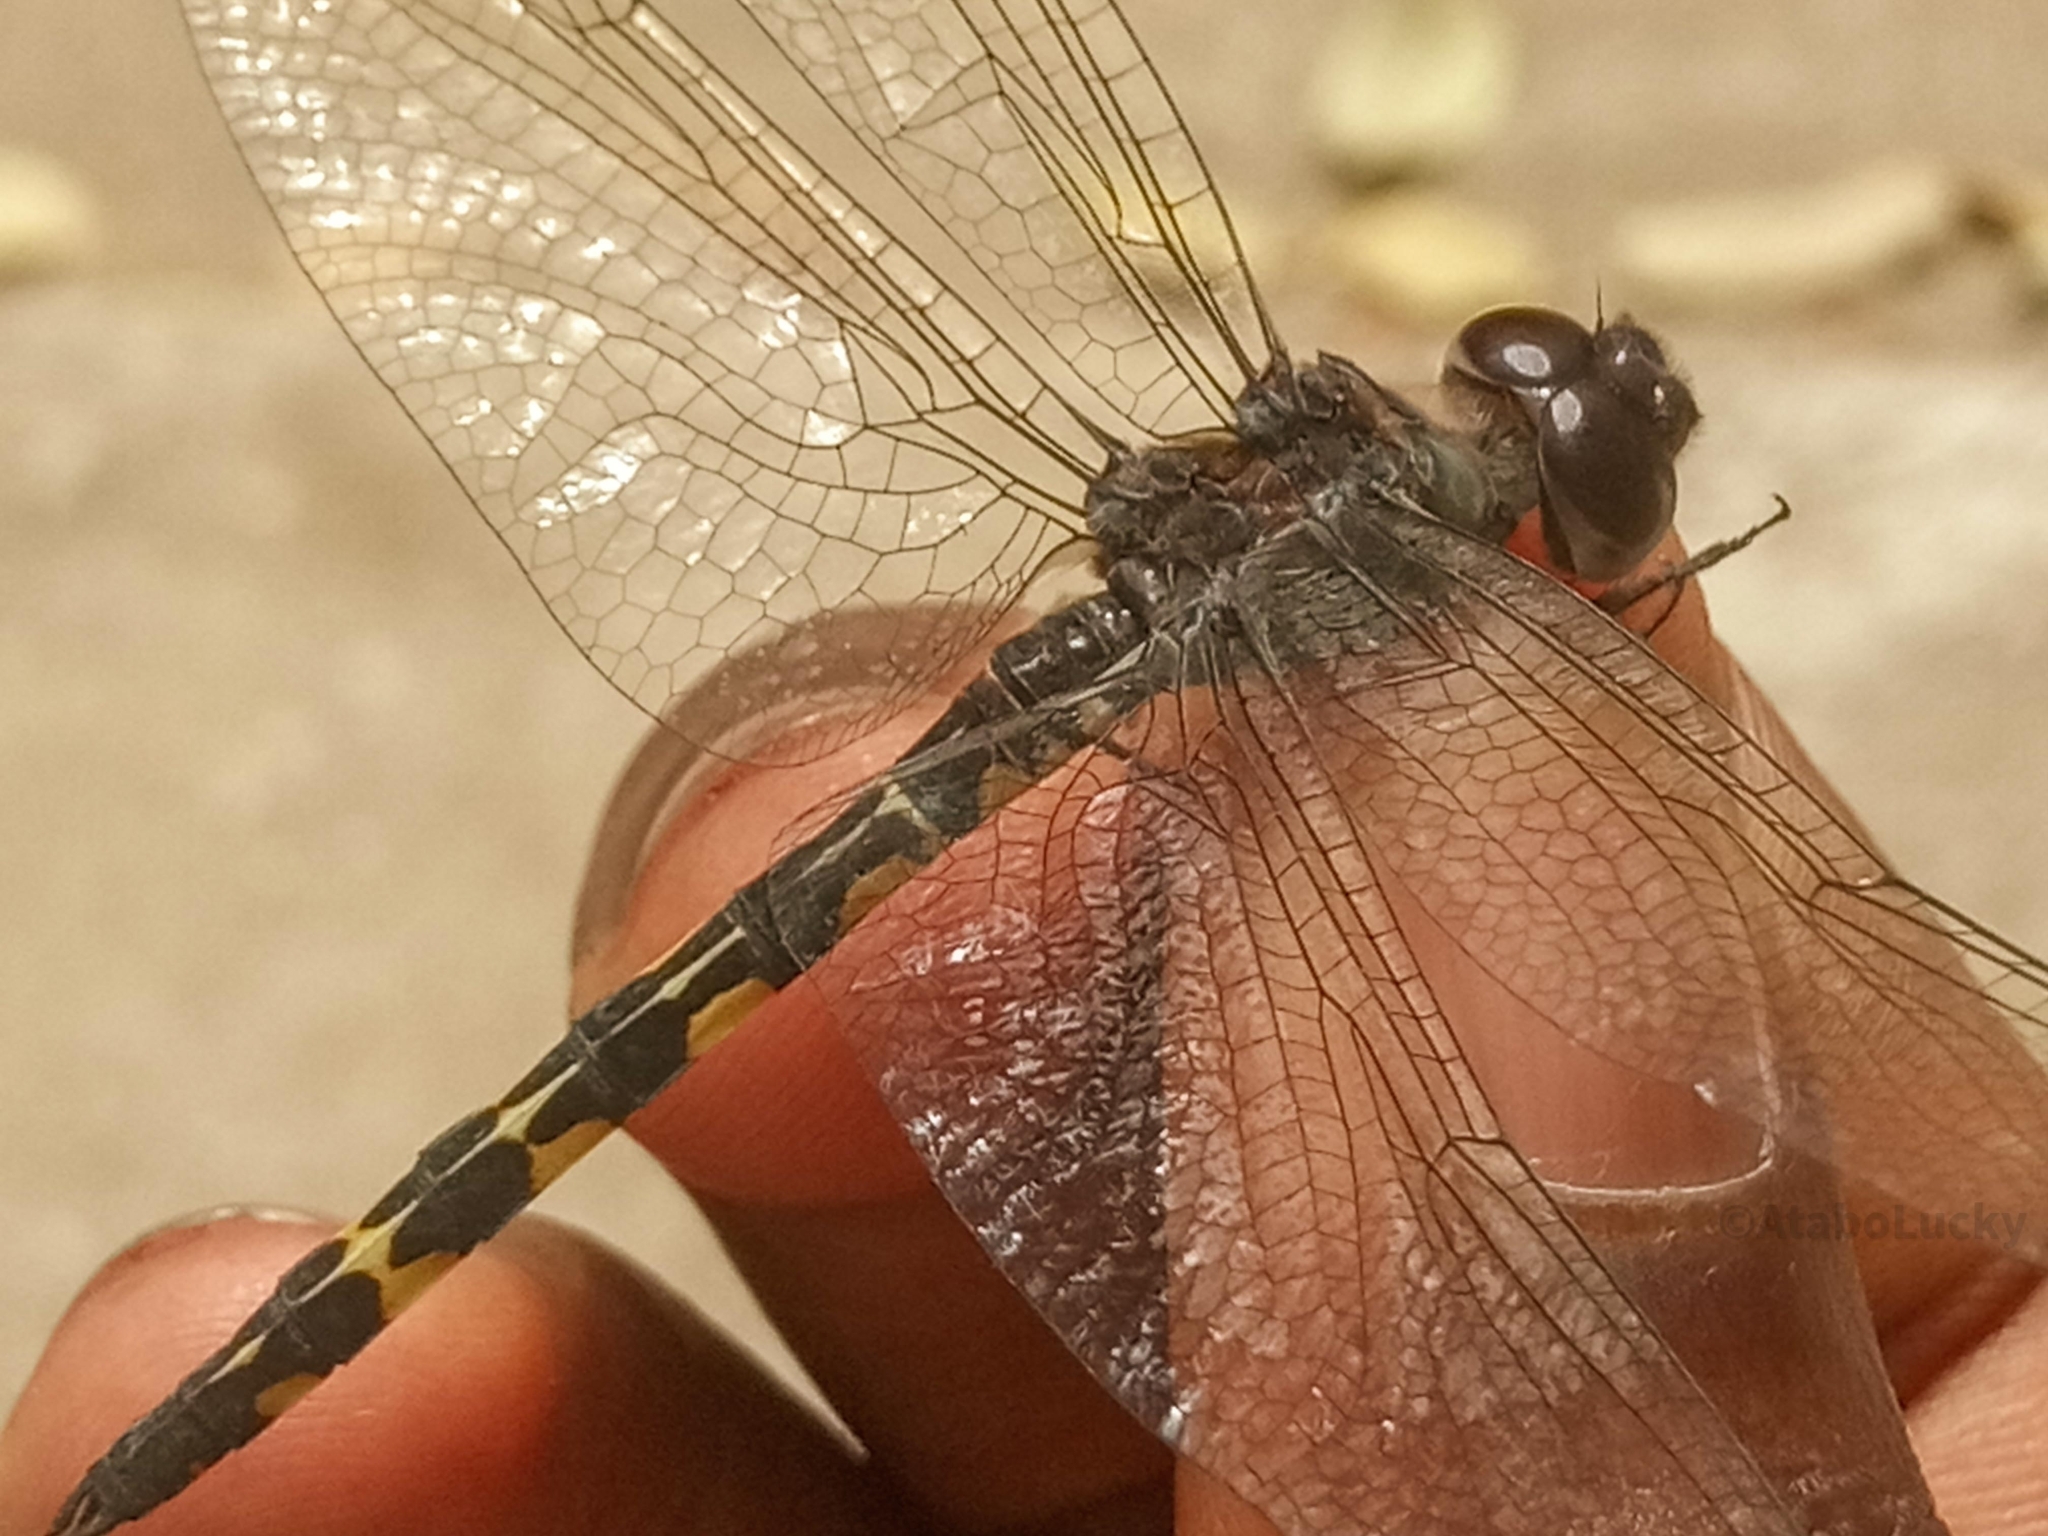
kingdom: Animalia
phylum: Arthropoda
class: Insecta
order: Odonata
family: Libellulidae
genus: Zygonyx
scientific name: Zygonyx torridus
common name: Ringed cascader
